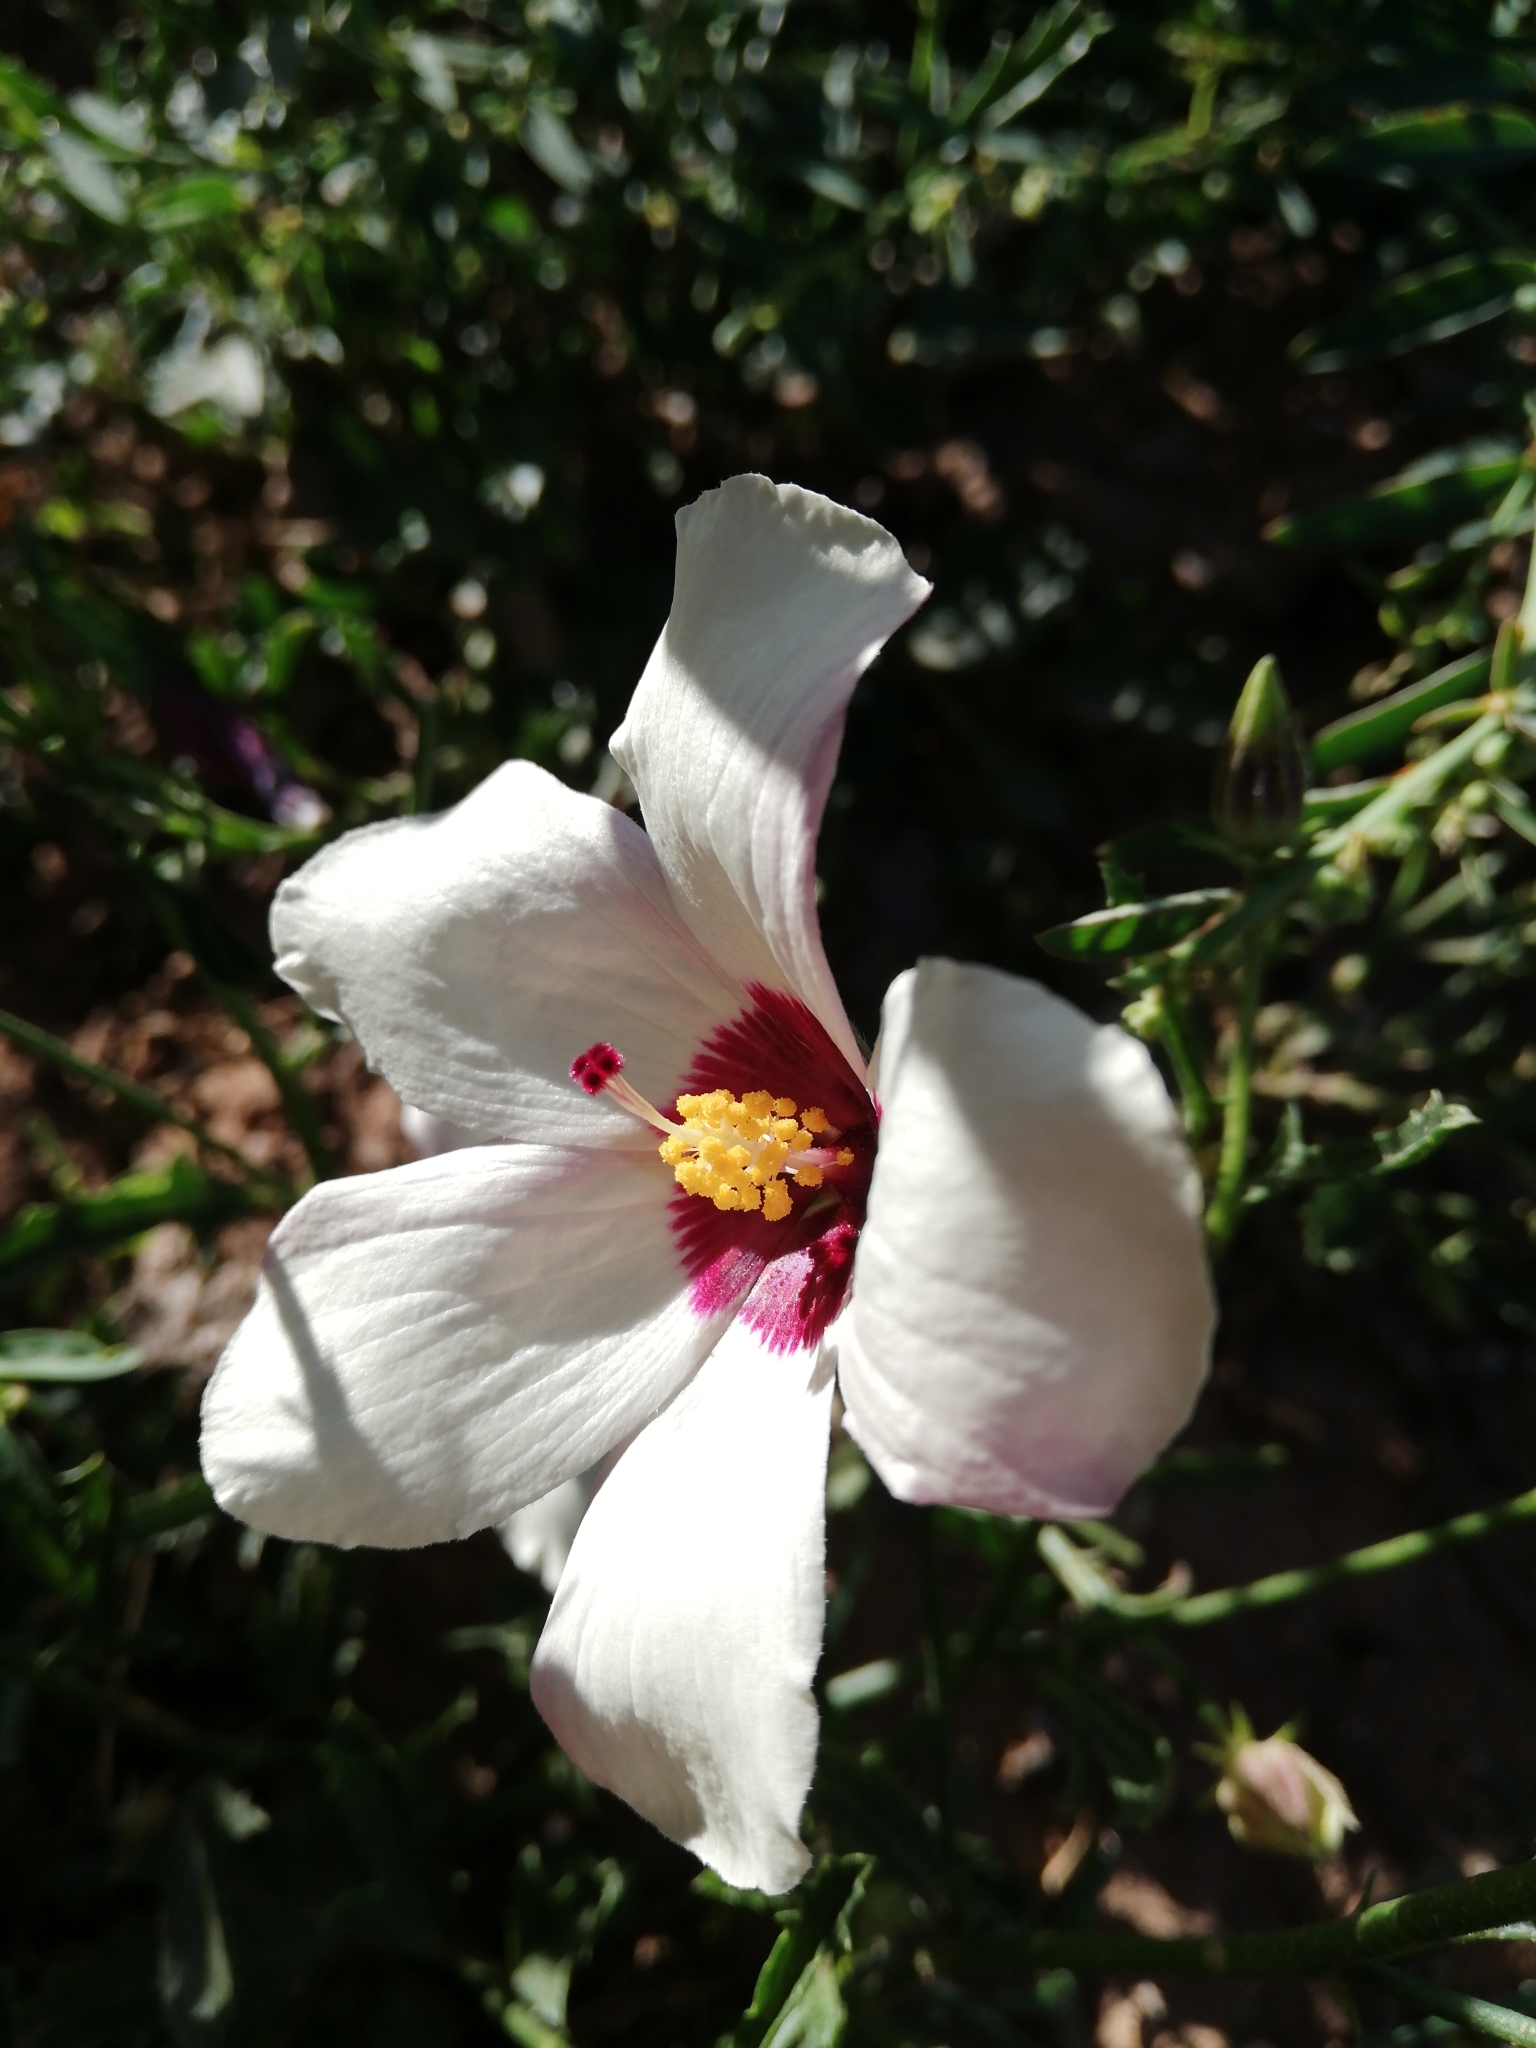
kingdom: Plantae
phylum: Tracheophyta
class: Magnoliopsida
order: Malvales
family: Malvaceae
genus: Hibiscus
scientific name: Hibiscus trionum
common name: Bladder ketmia
